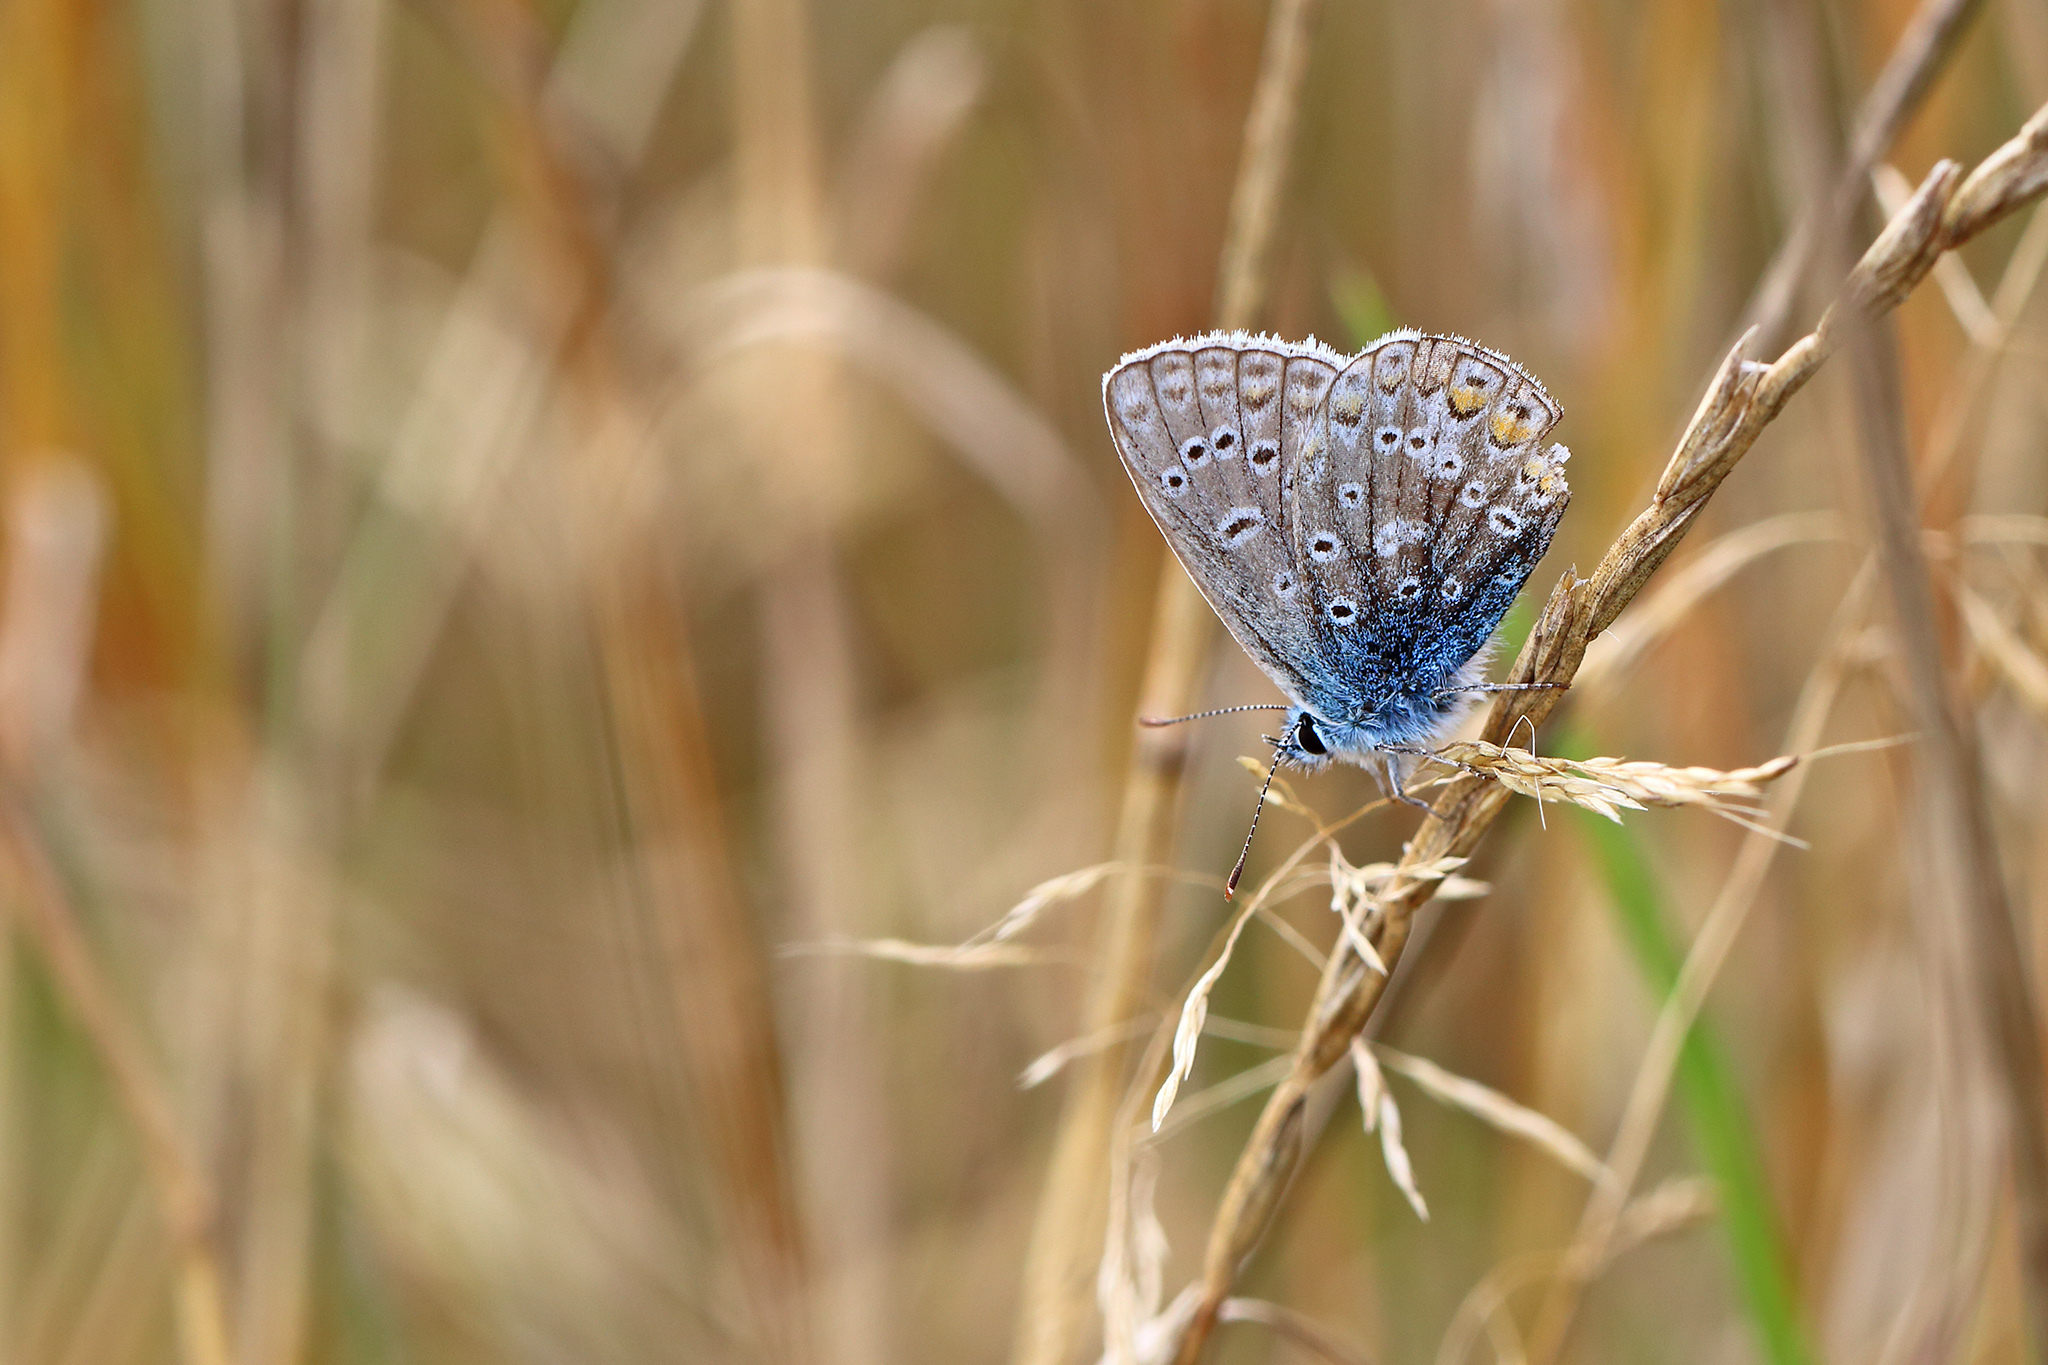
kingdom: Animalia
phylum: Arthropoda
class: Insecta
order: Lepidoptera
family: Lycaenidae
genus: Polyommatus
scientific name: Polyommatus icarus
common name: Common blue
